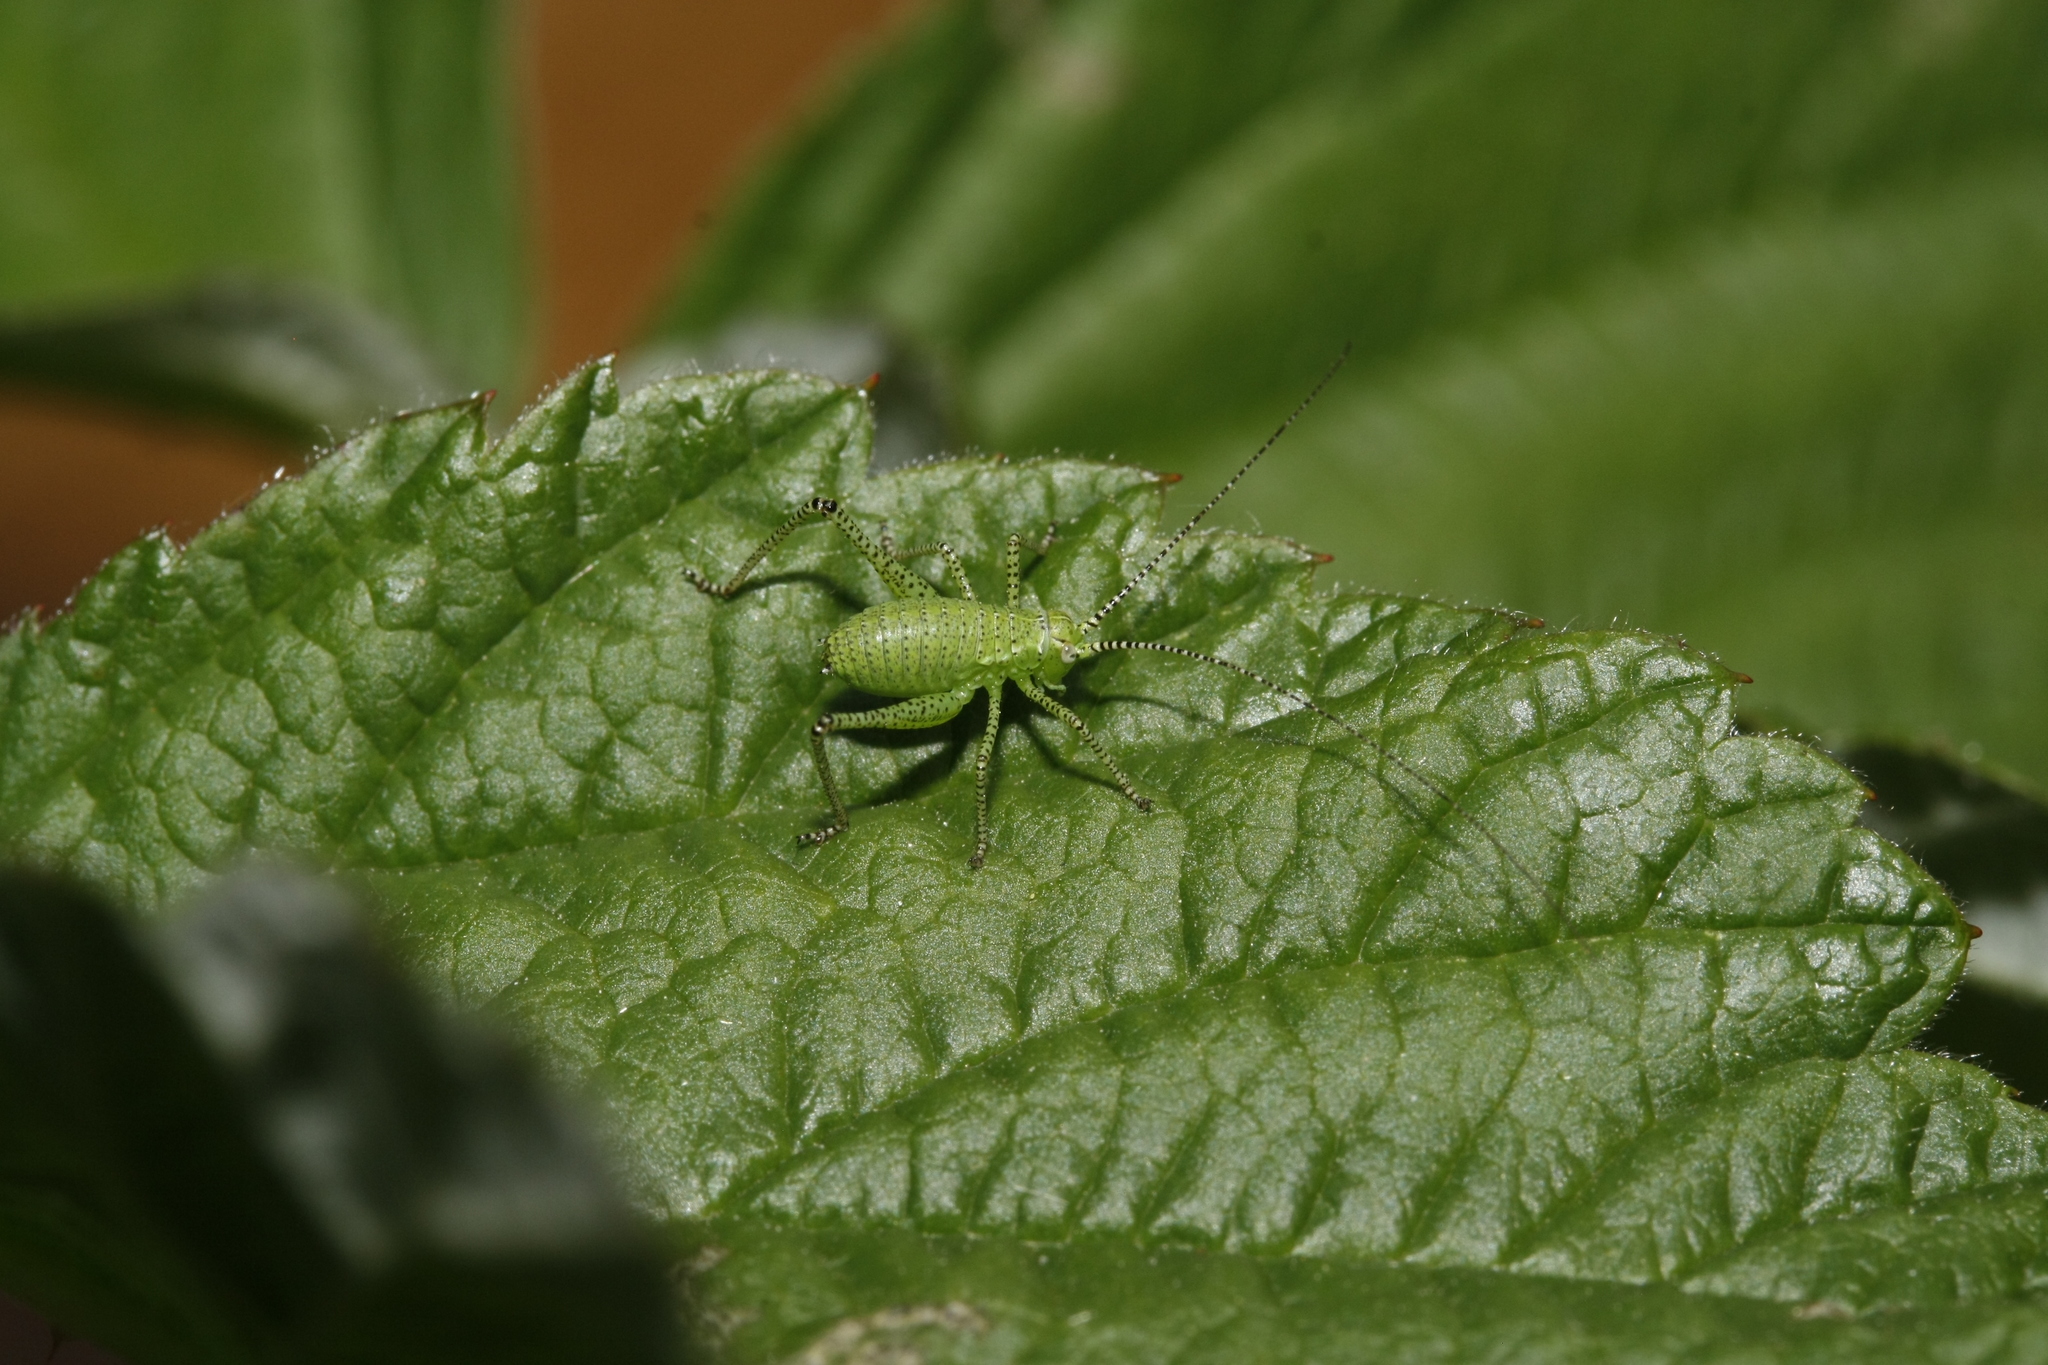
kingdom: Animalia
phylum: Arthropoda
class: Insecta
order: Orthoptera
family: Tettigoniidae
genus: Leptophyes
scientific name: Leptophyes punctatissima
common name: Speckled bush-cricket
